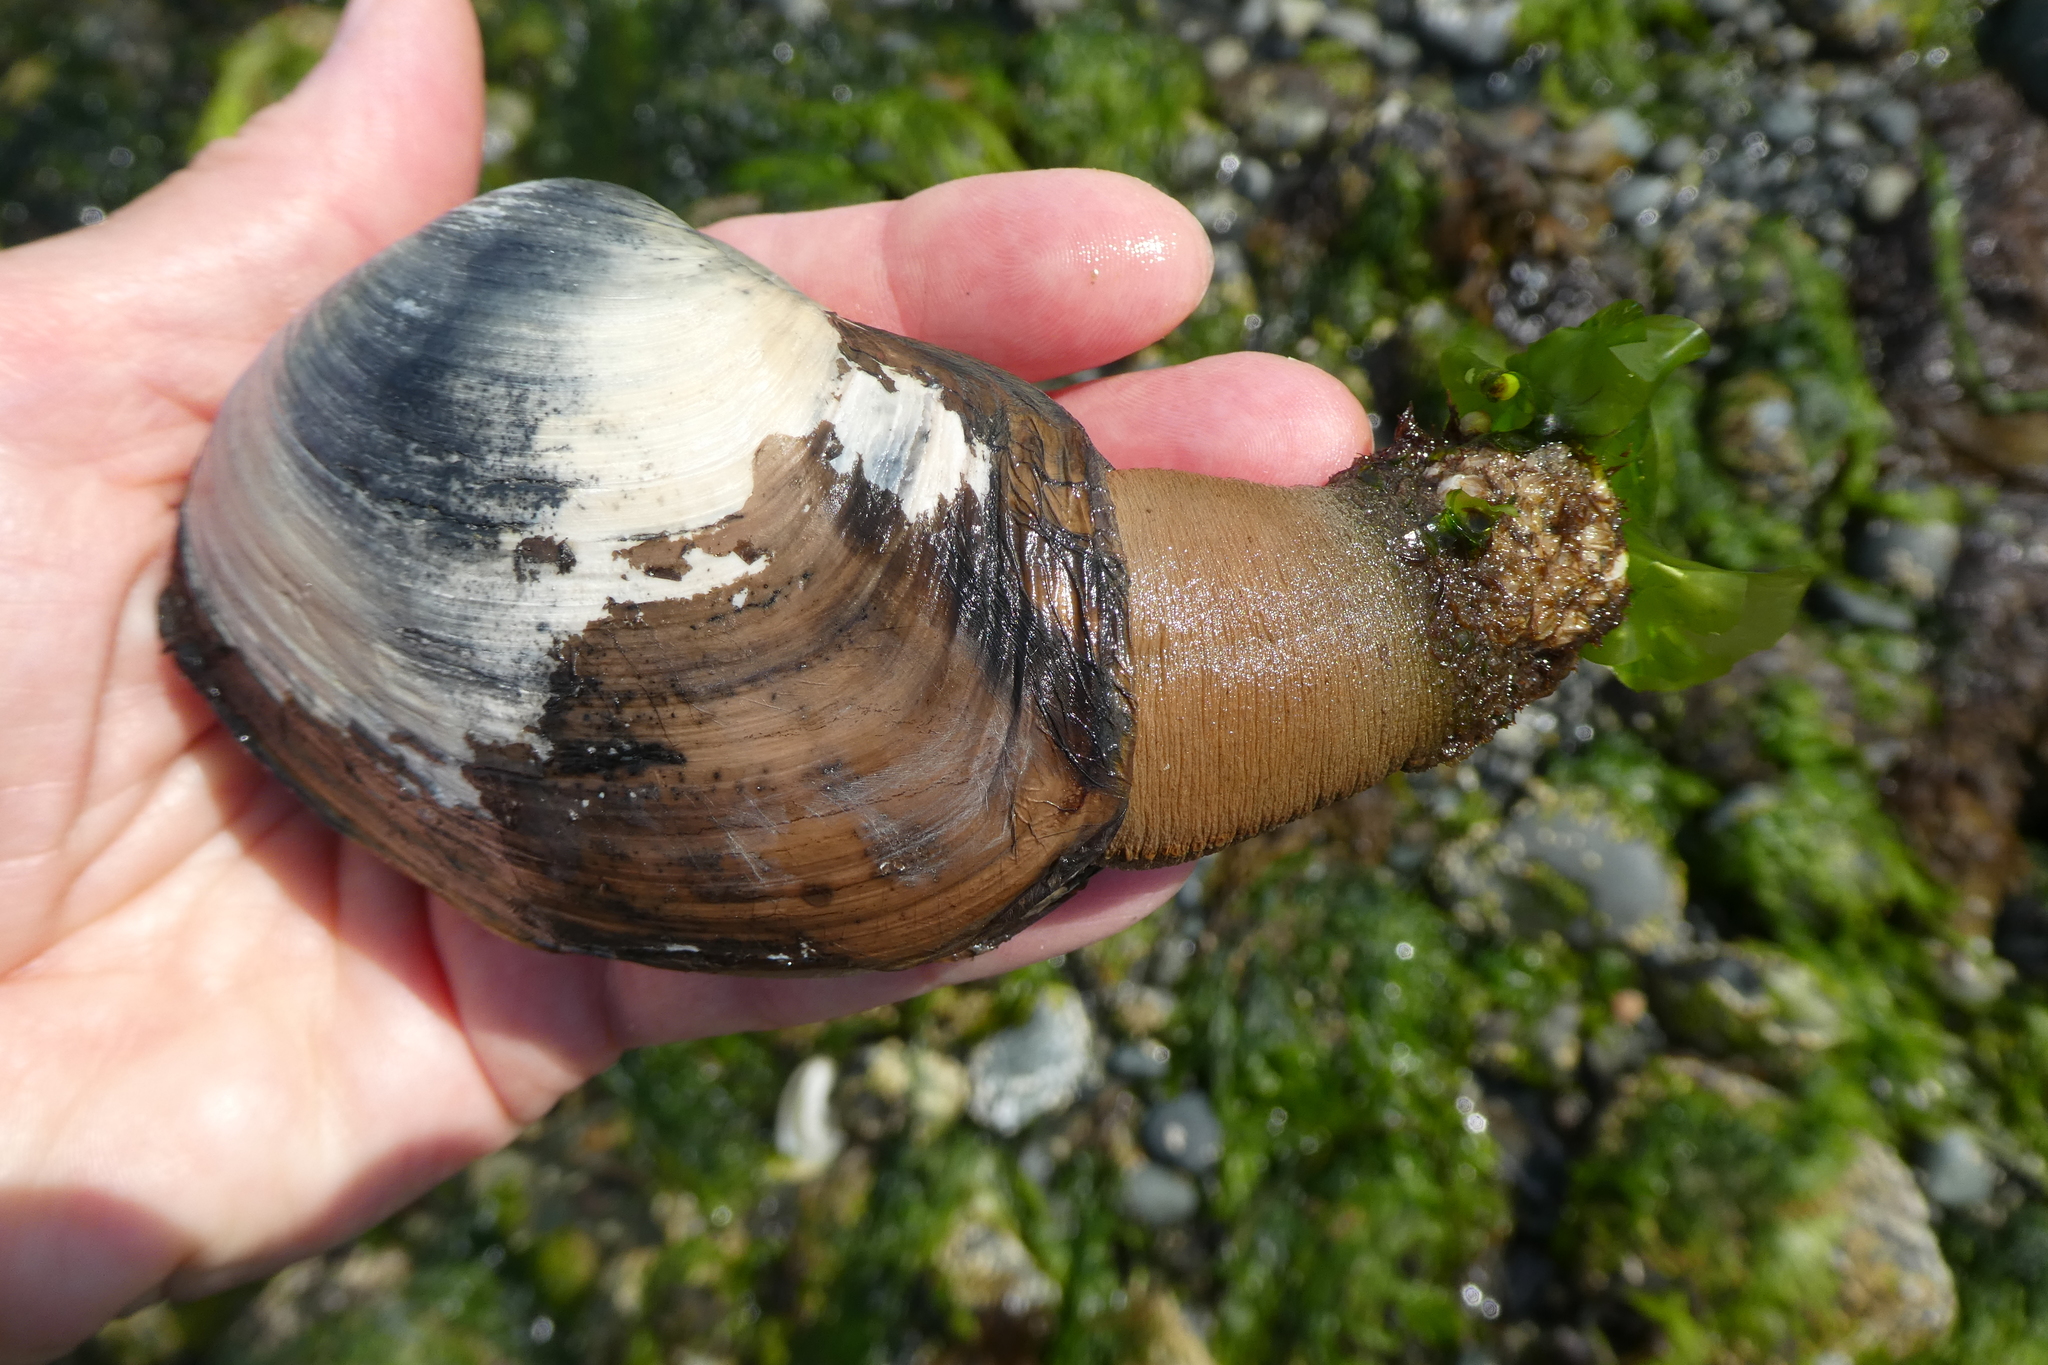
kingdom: Animalia
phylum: Mollusca
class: Bivalvia
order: Venerida
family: Mactridae
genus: Tresus
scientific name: Tresus nuttallii
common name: Pacific gaper clam
